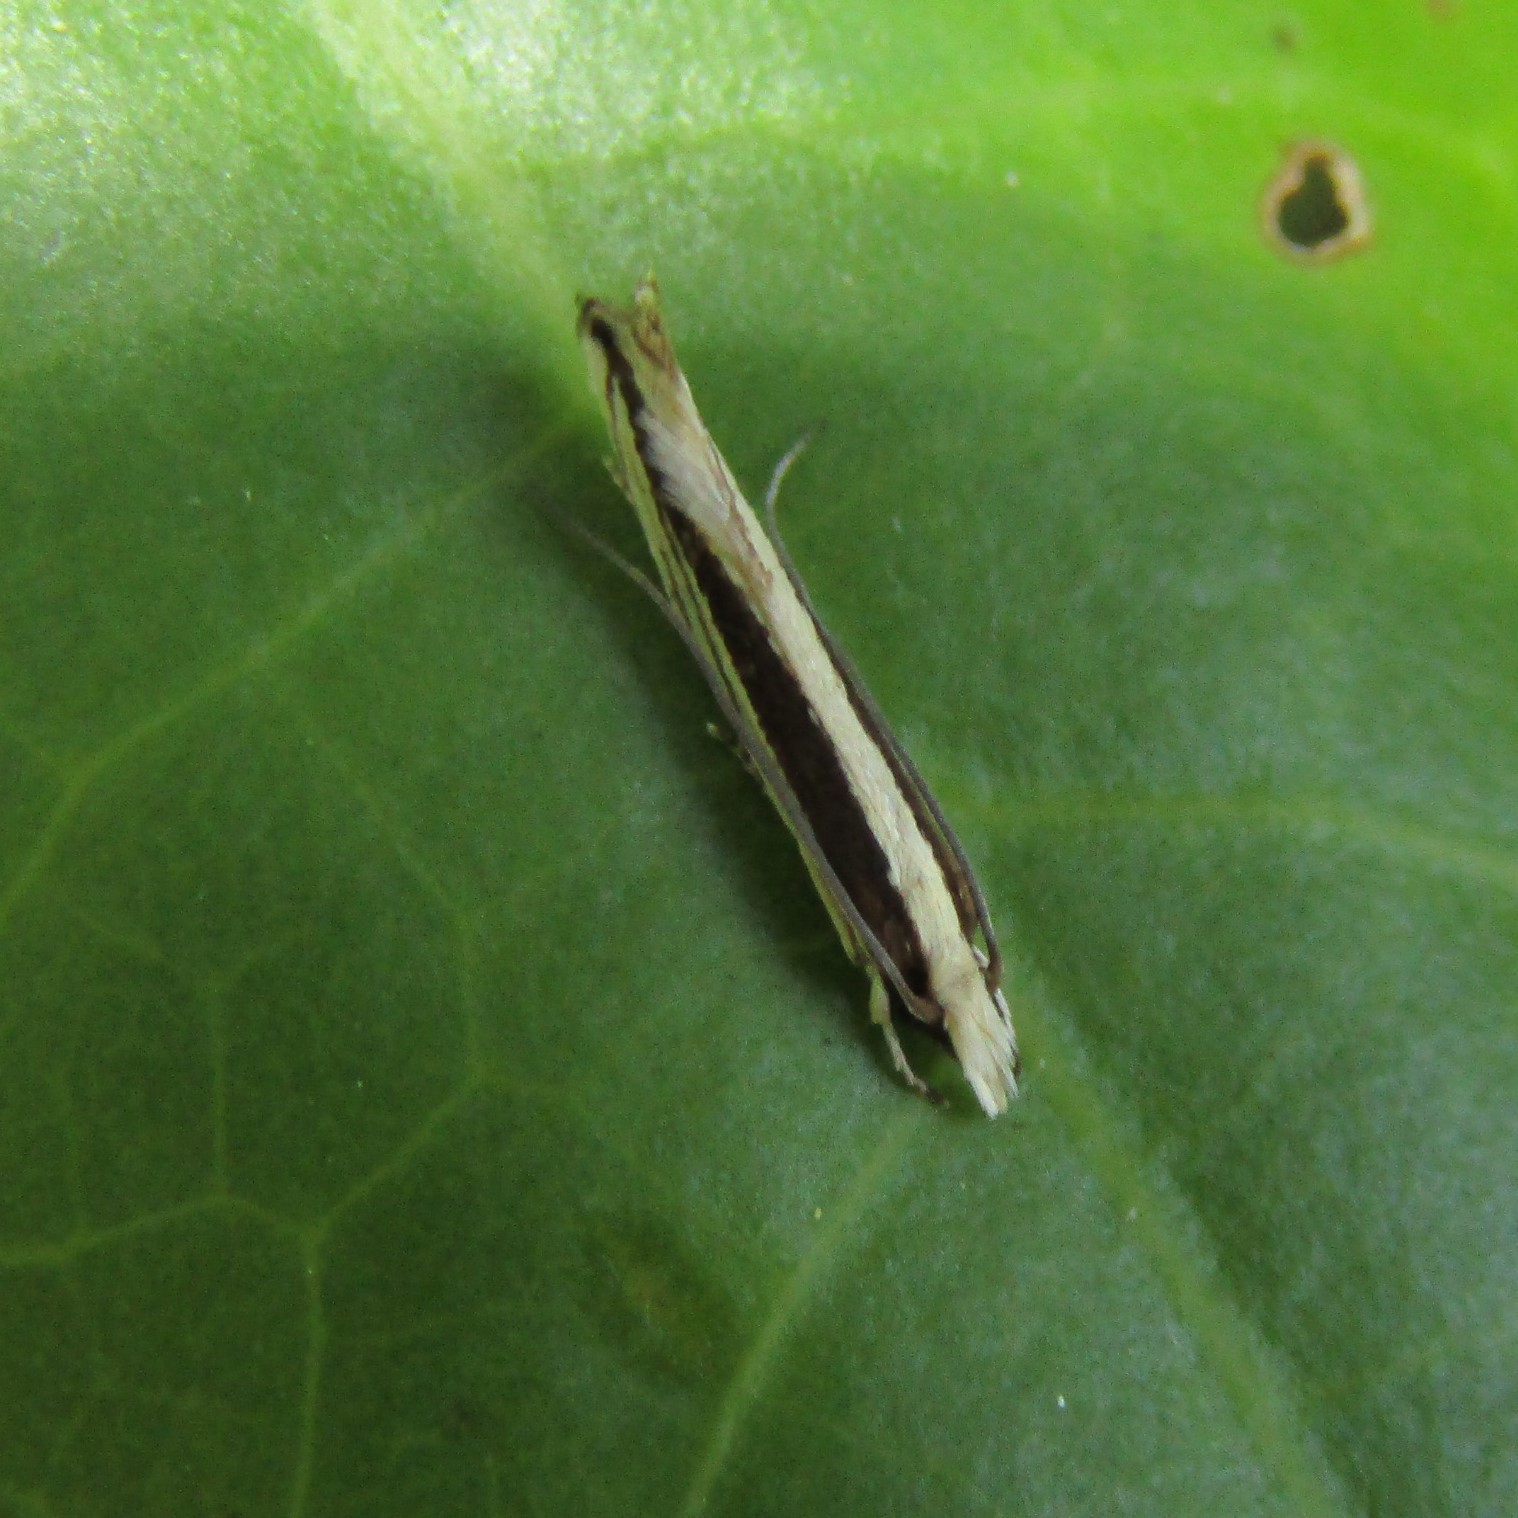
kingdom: Animalia
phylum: Arthropoda
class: Insecta
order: Lepidoptera
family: Tineidae
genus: Erechthias
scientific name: Erechthias stilbella
